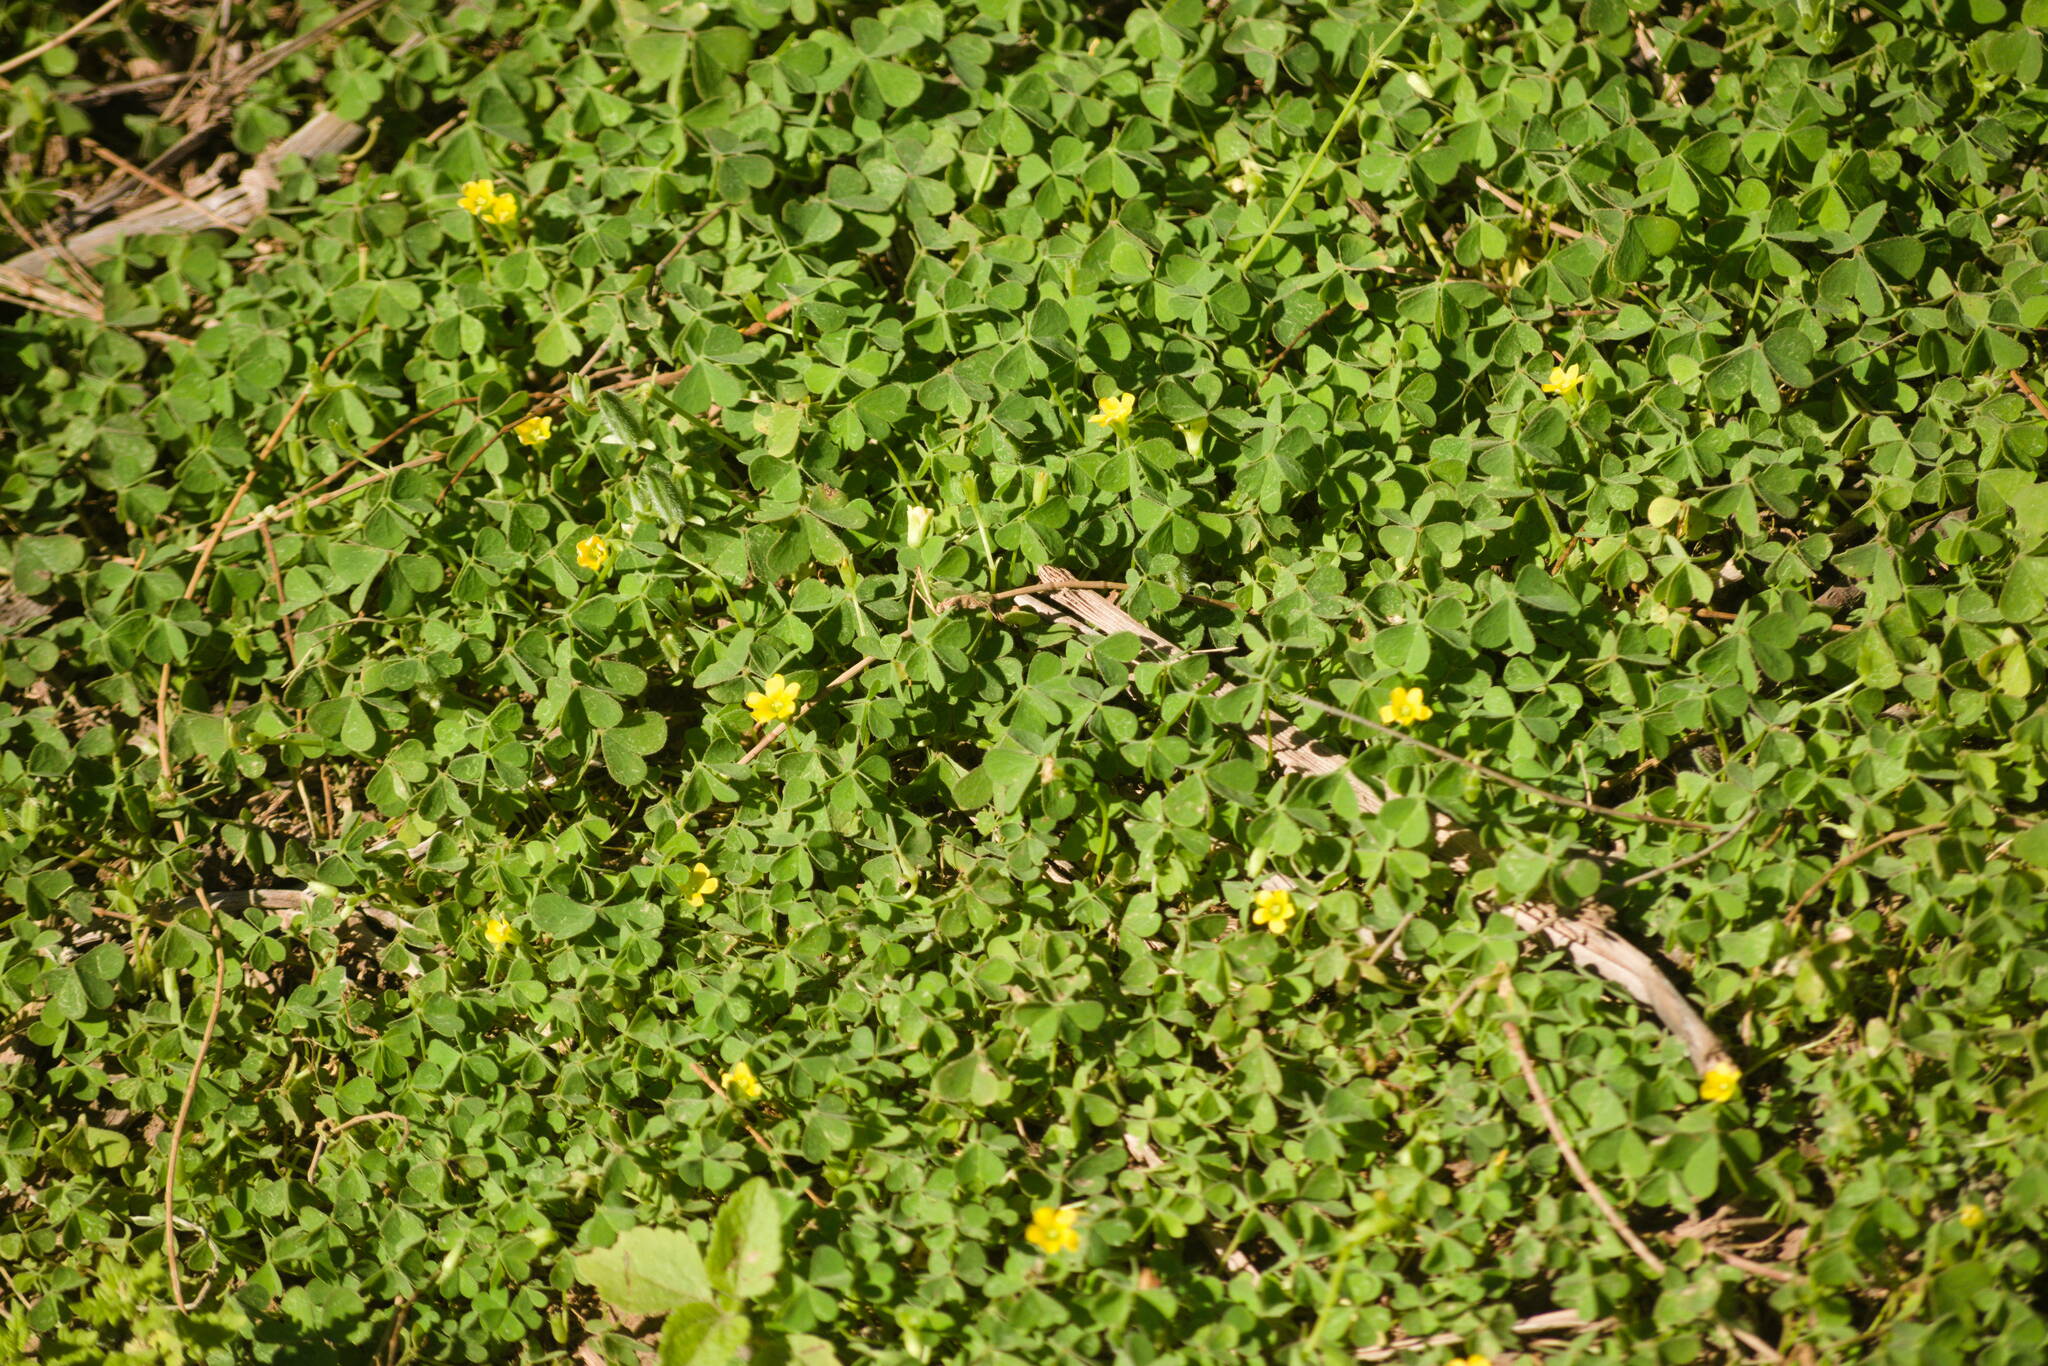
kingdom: Plantae
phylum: Tracheophyta
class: Magnoliopsida
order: Oxalidales
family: Oxalidaceae
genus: Oxalis
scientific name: Oxalis corniculata
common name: Procumbent yellow-sorrel
